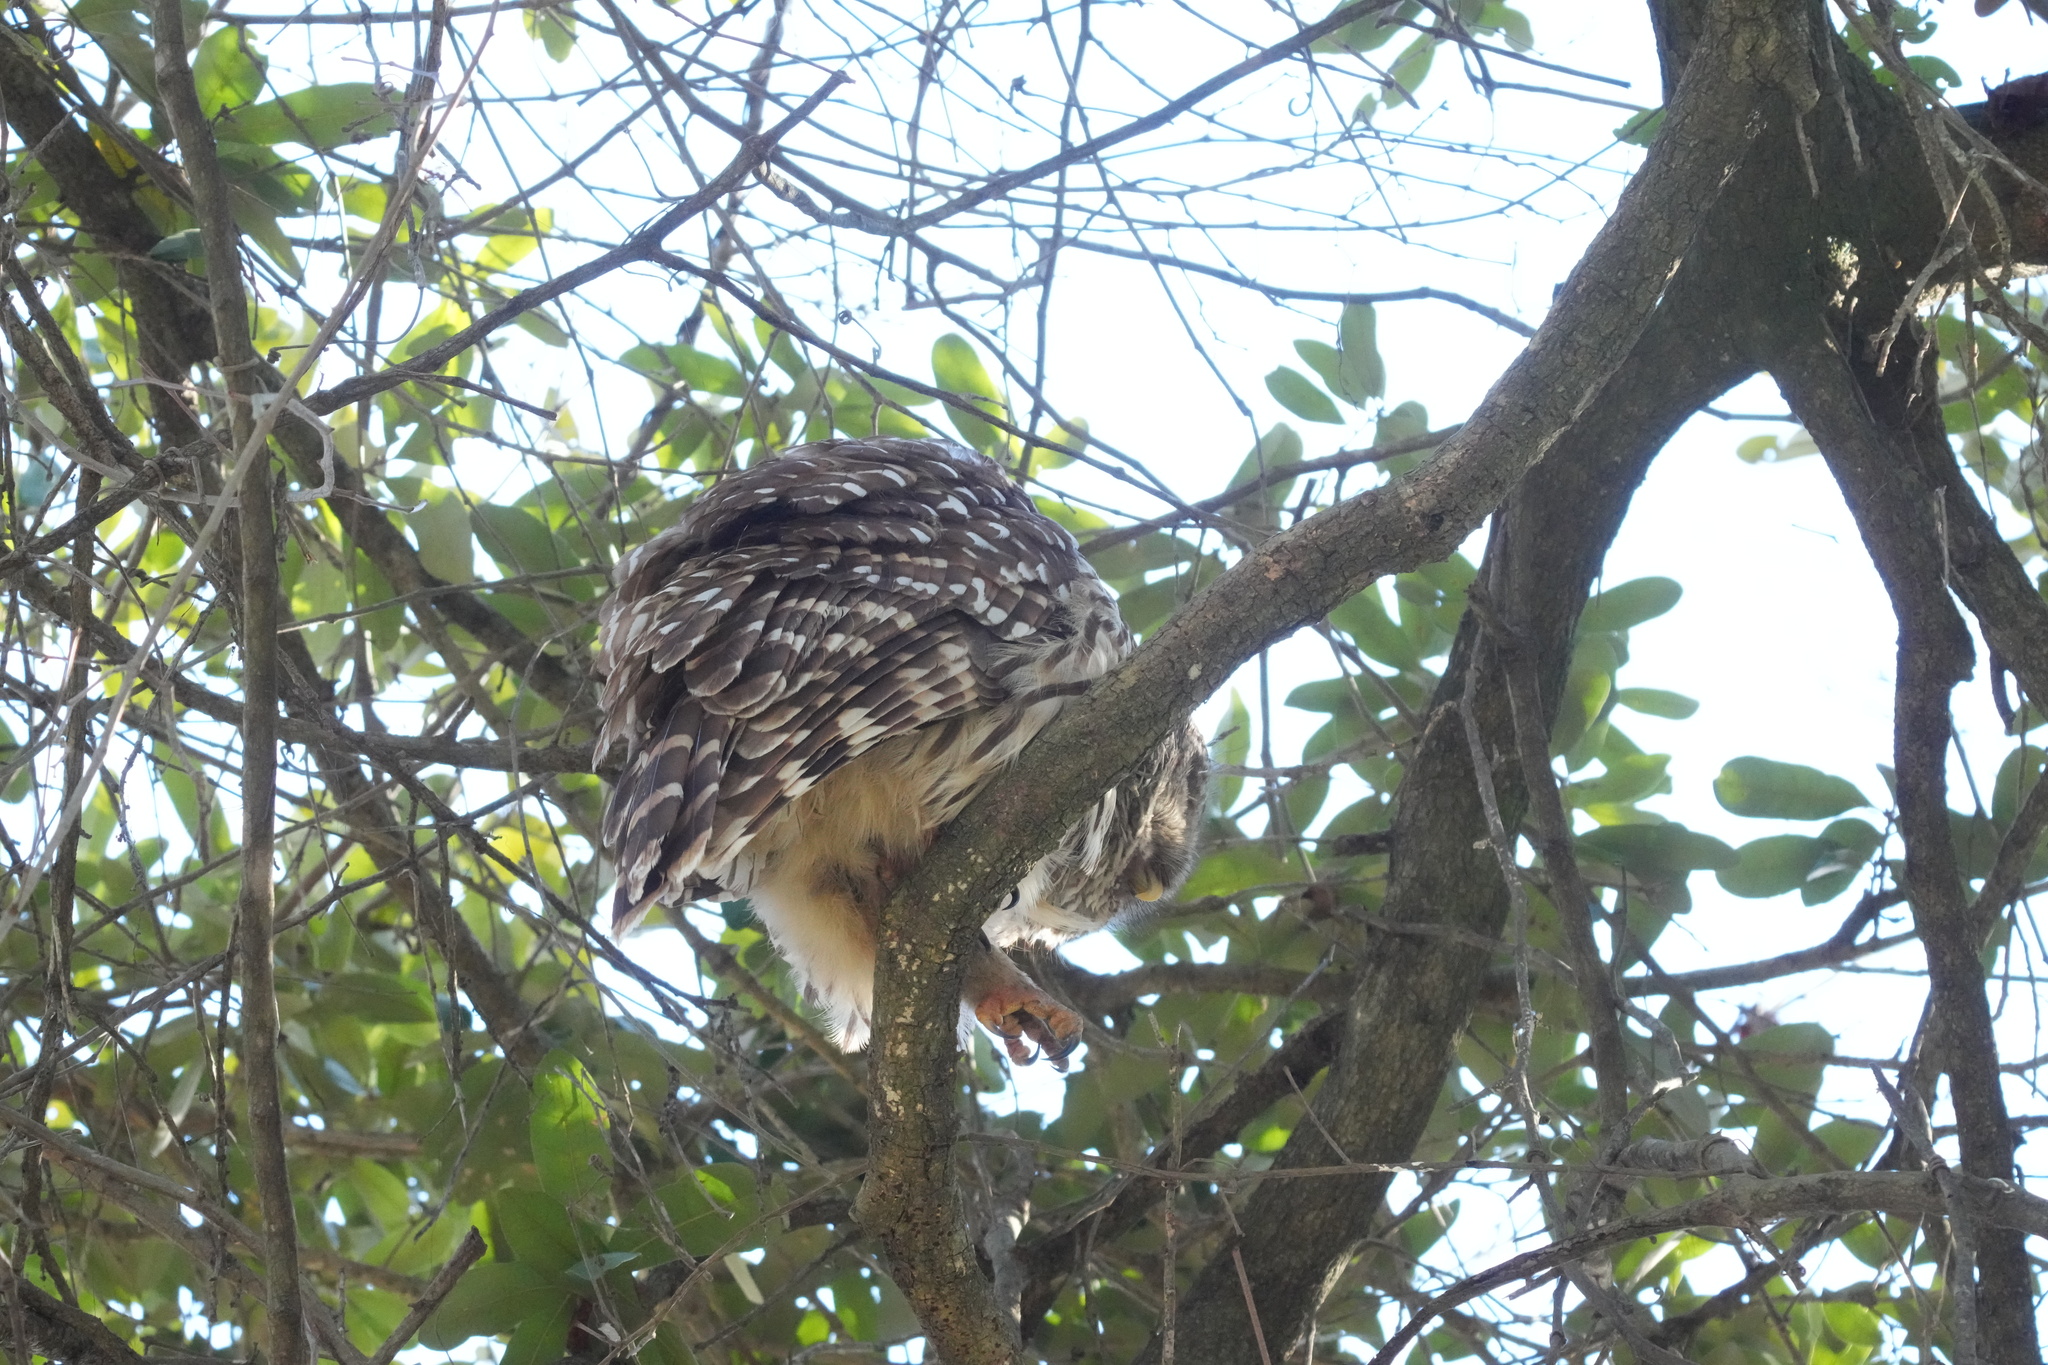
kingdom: Animalia
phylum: Chordata
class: Aves
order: Strigiformes
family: Strigidae
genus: Strix
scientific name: Strix varia
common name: Barred owl
